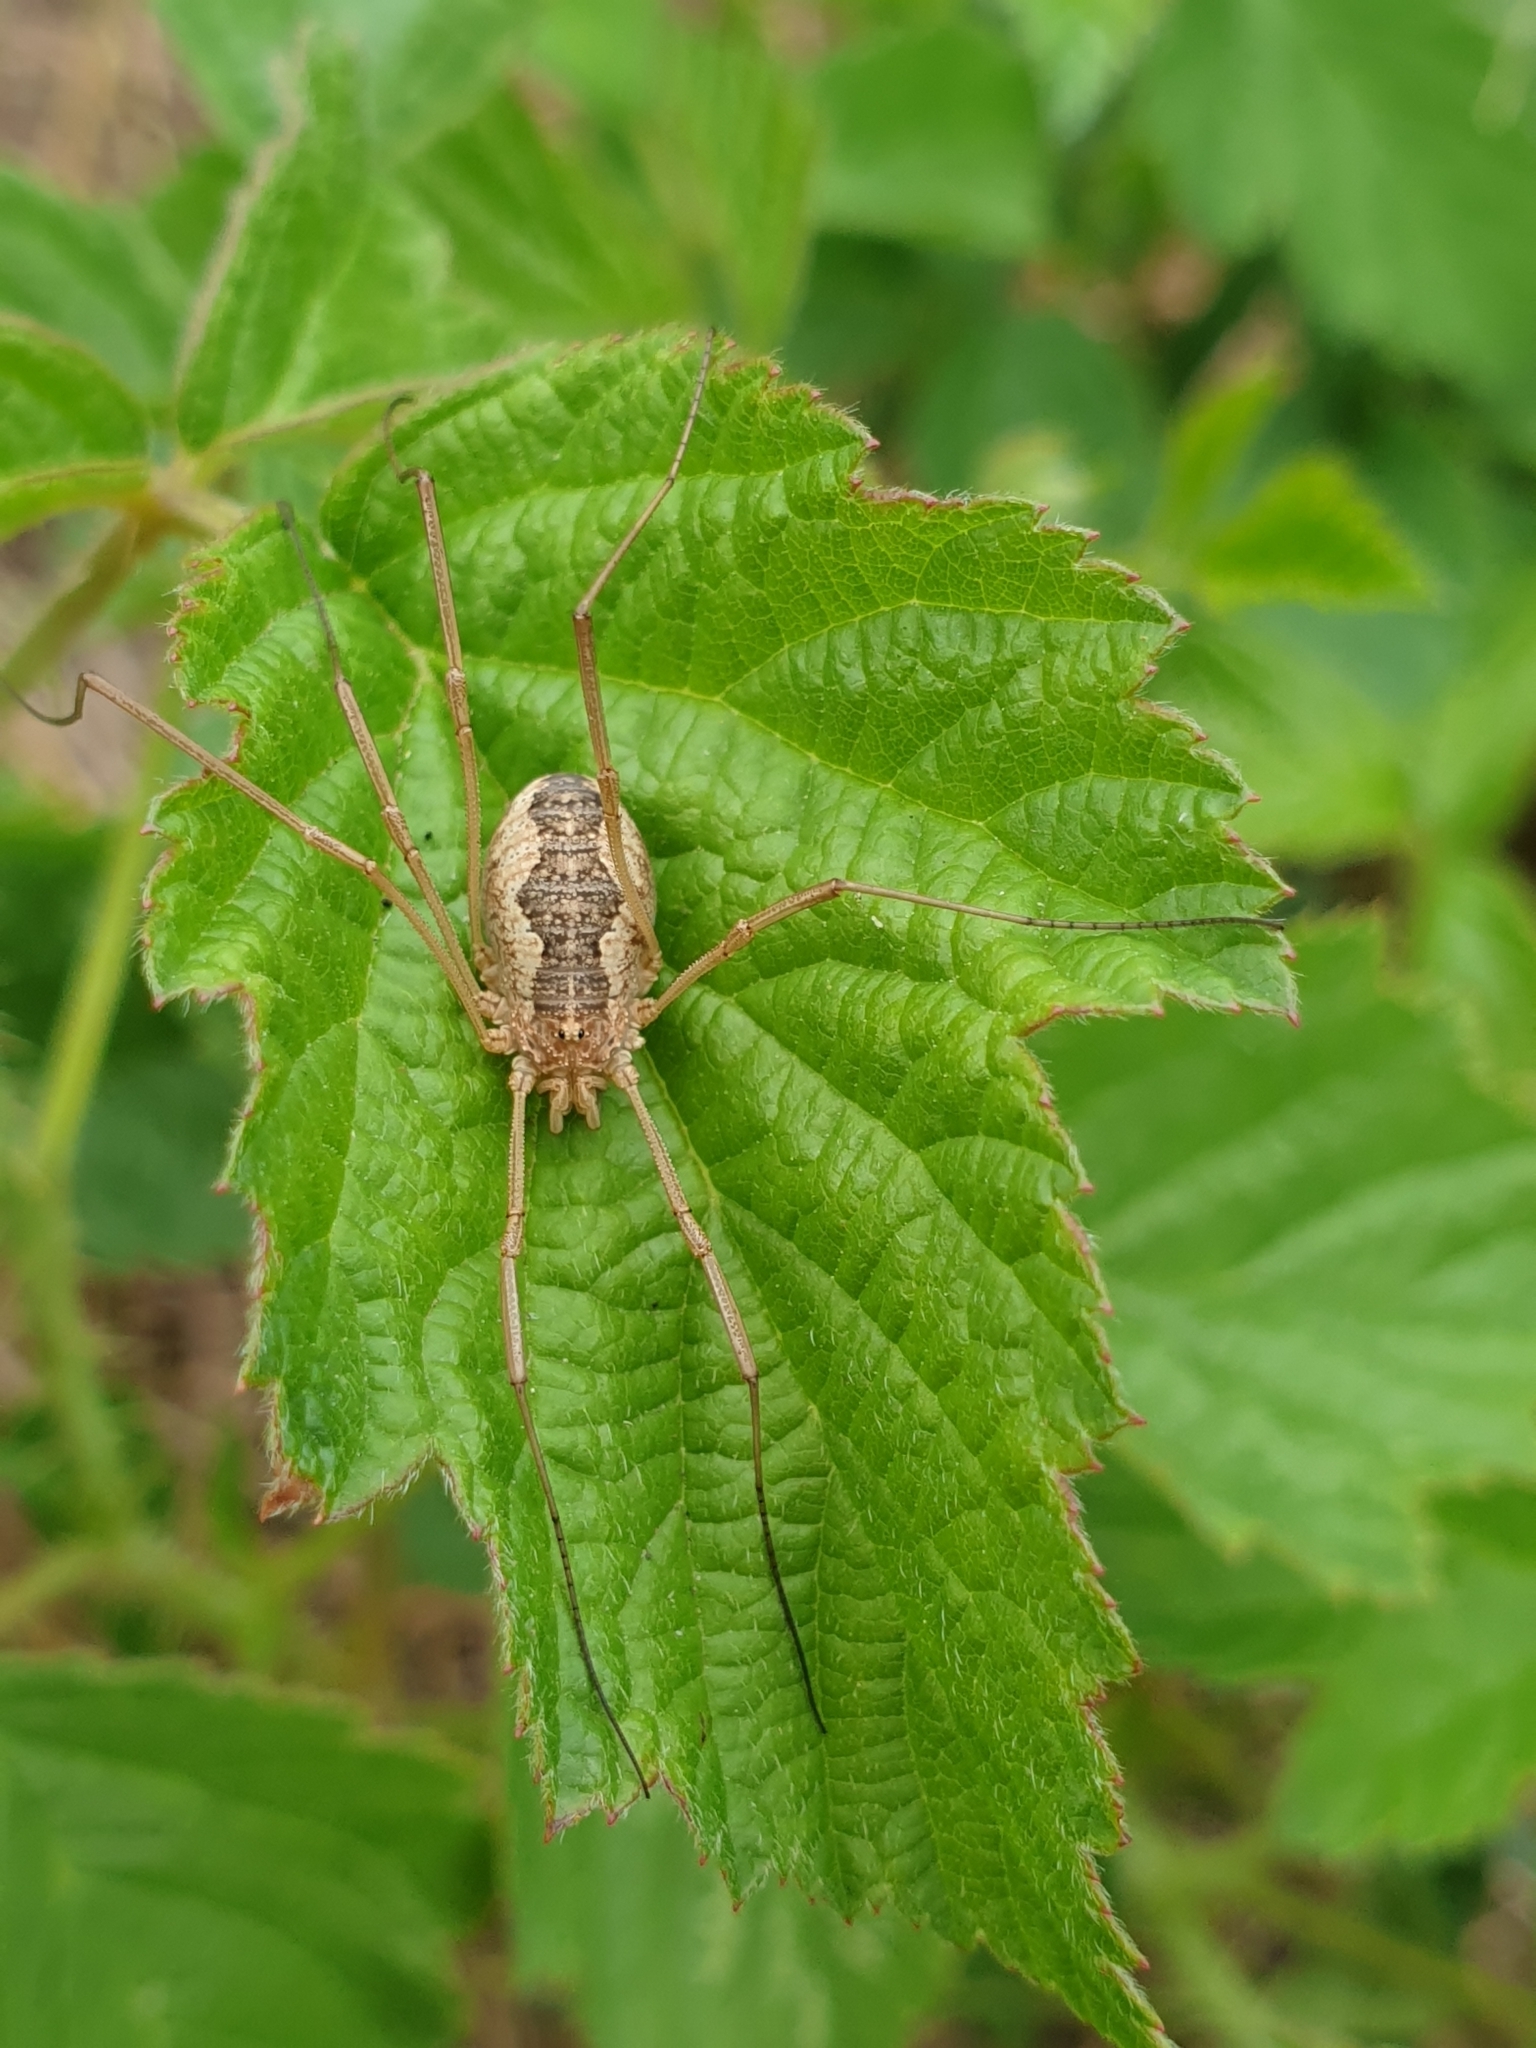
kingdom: Animalia
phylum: Arthropoda
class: Arachnida
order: Opiliones
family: Phalangiidae
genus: Phalangium
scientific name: Phalangium opilio
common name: Daddy longleg
